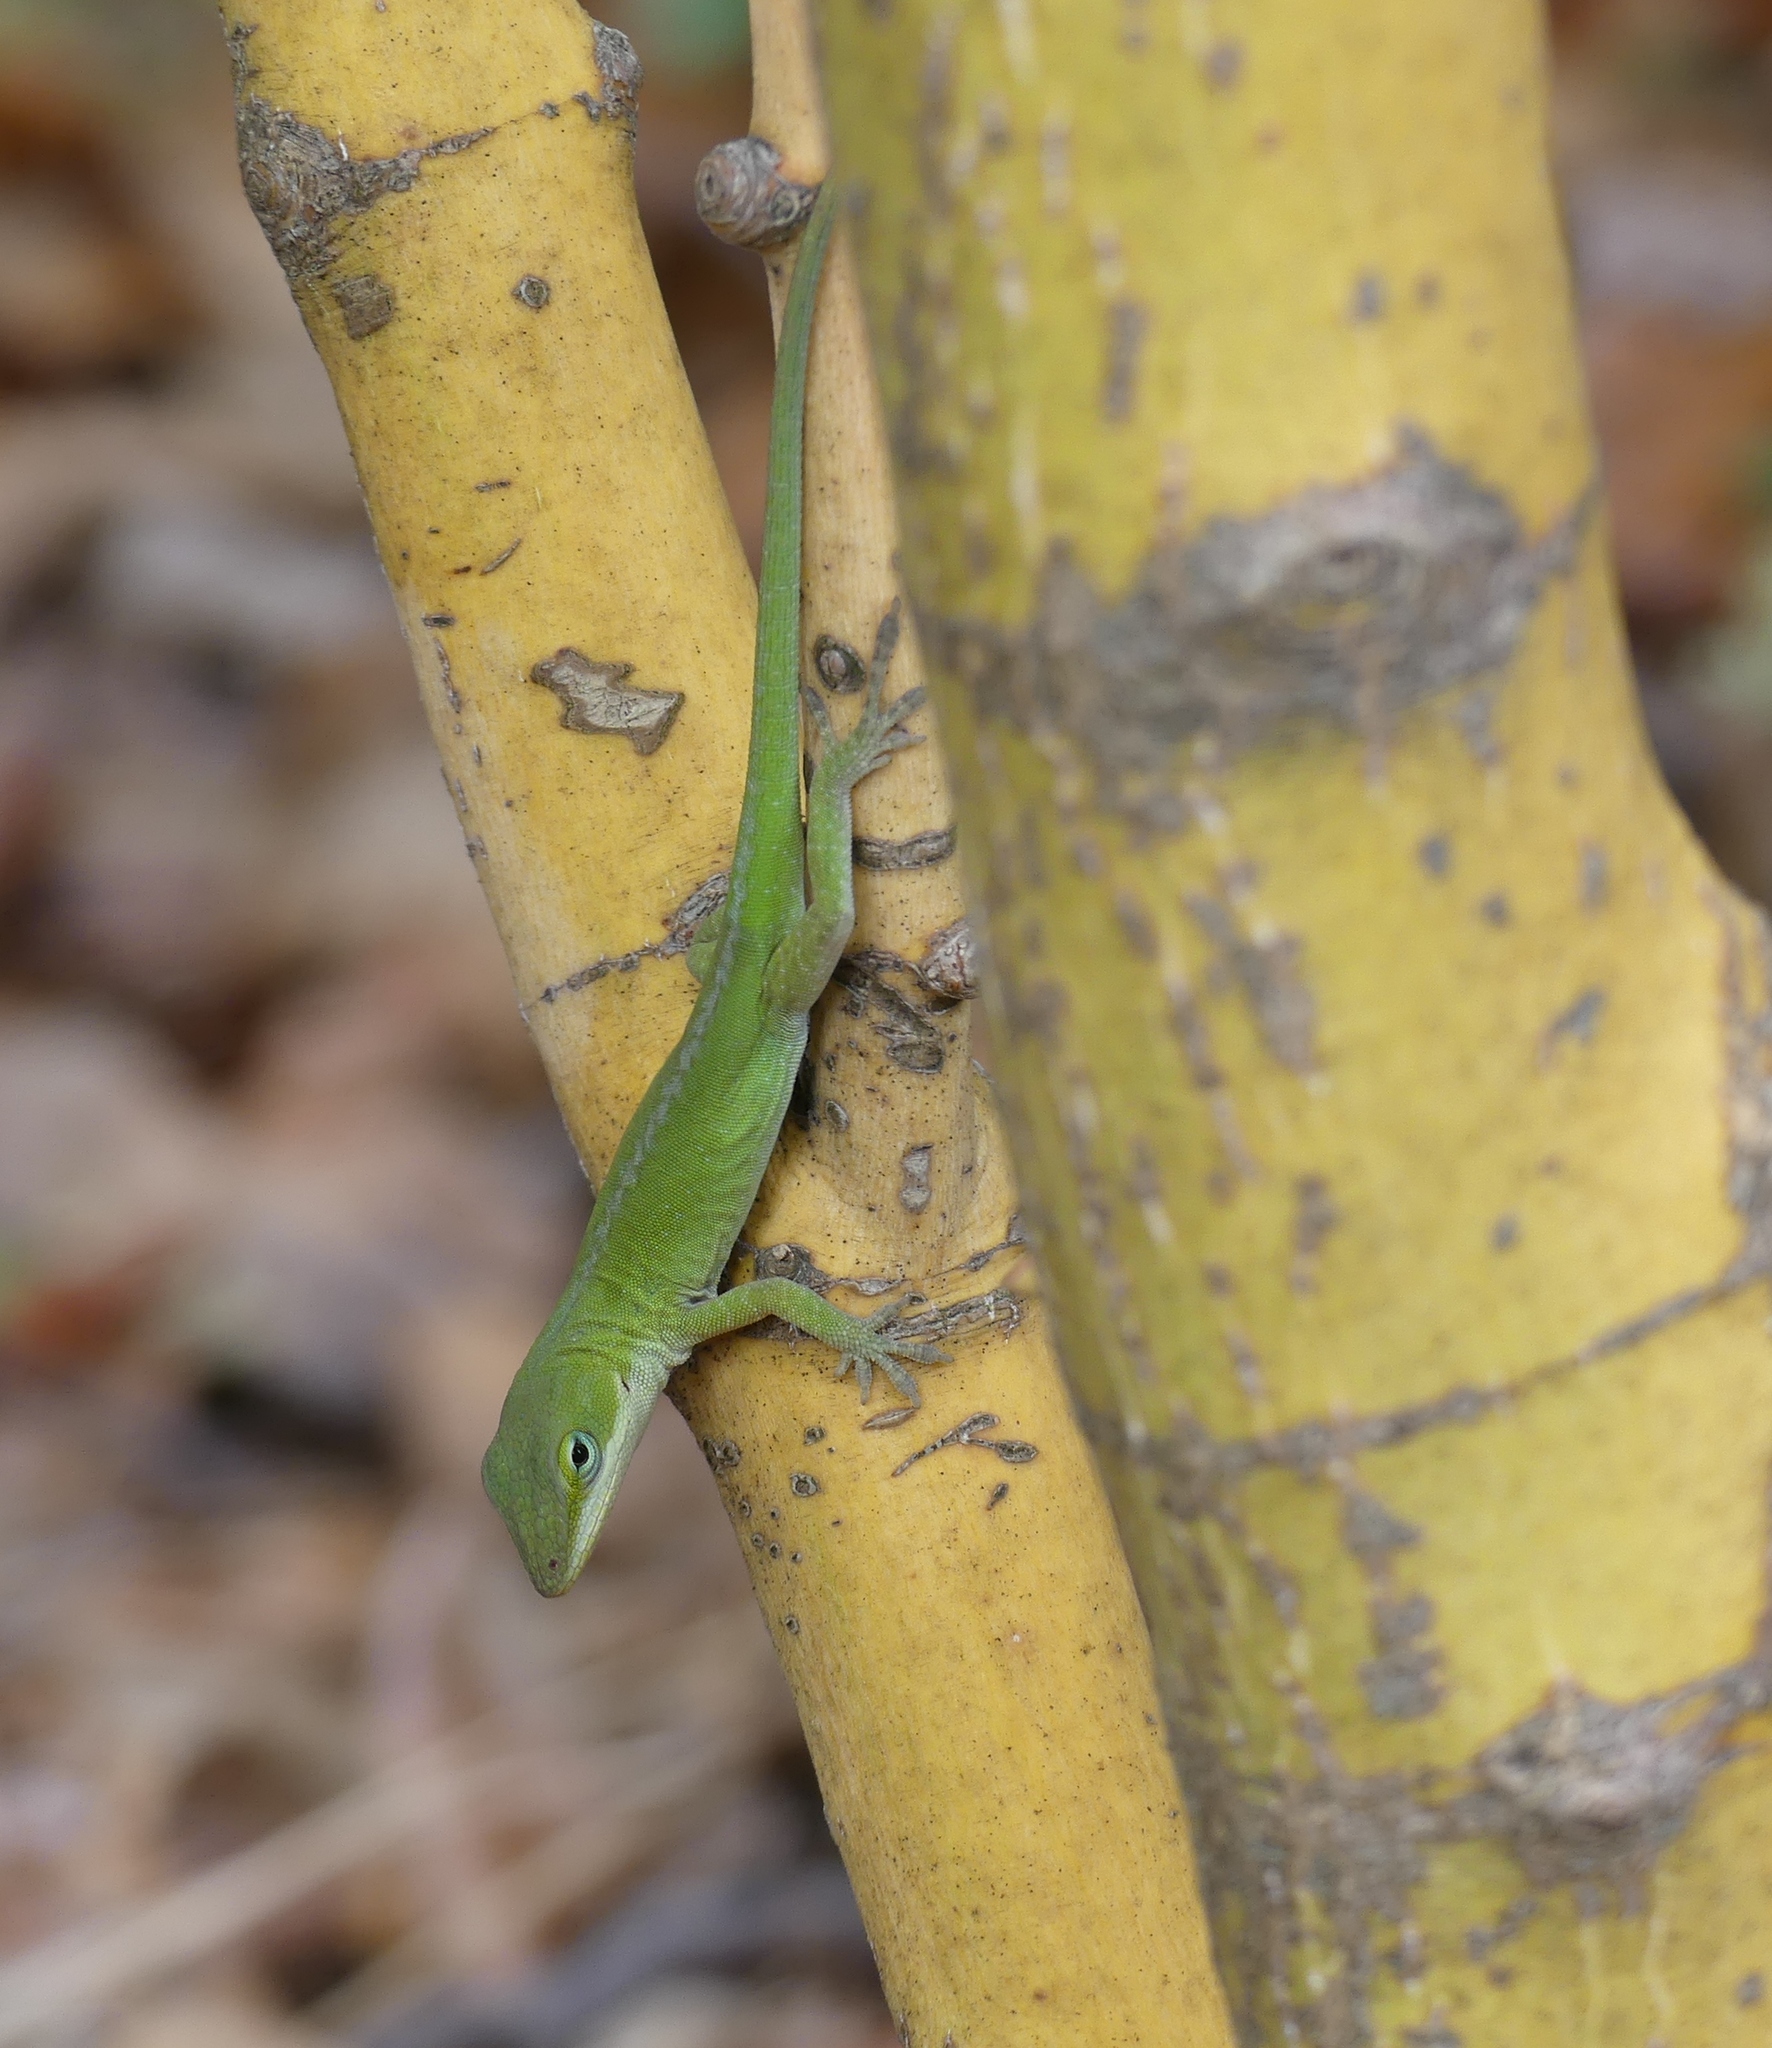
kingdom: Animalia
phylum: Chordata
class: Squamata
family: Dactyloidae
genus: Anolis
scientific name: Anolis carolinensis
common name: Green anole
